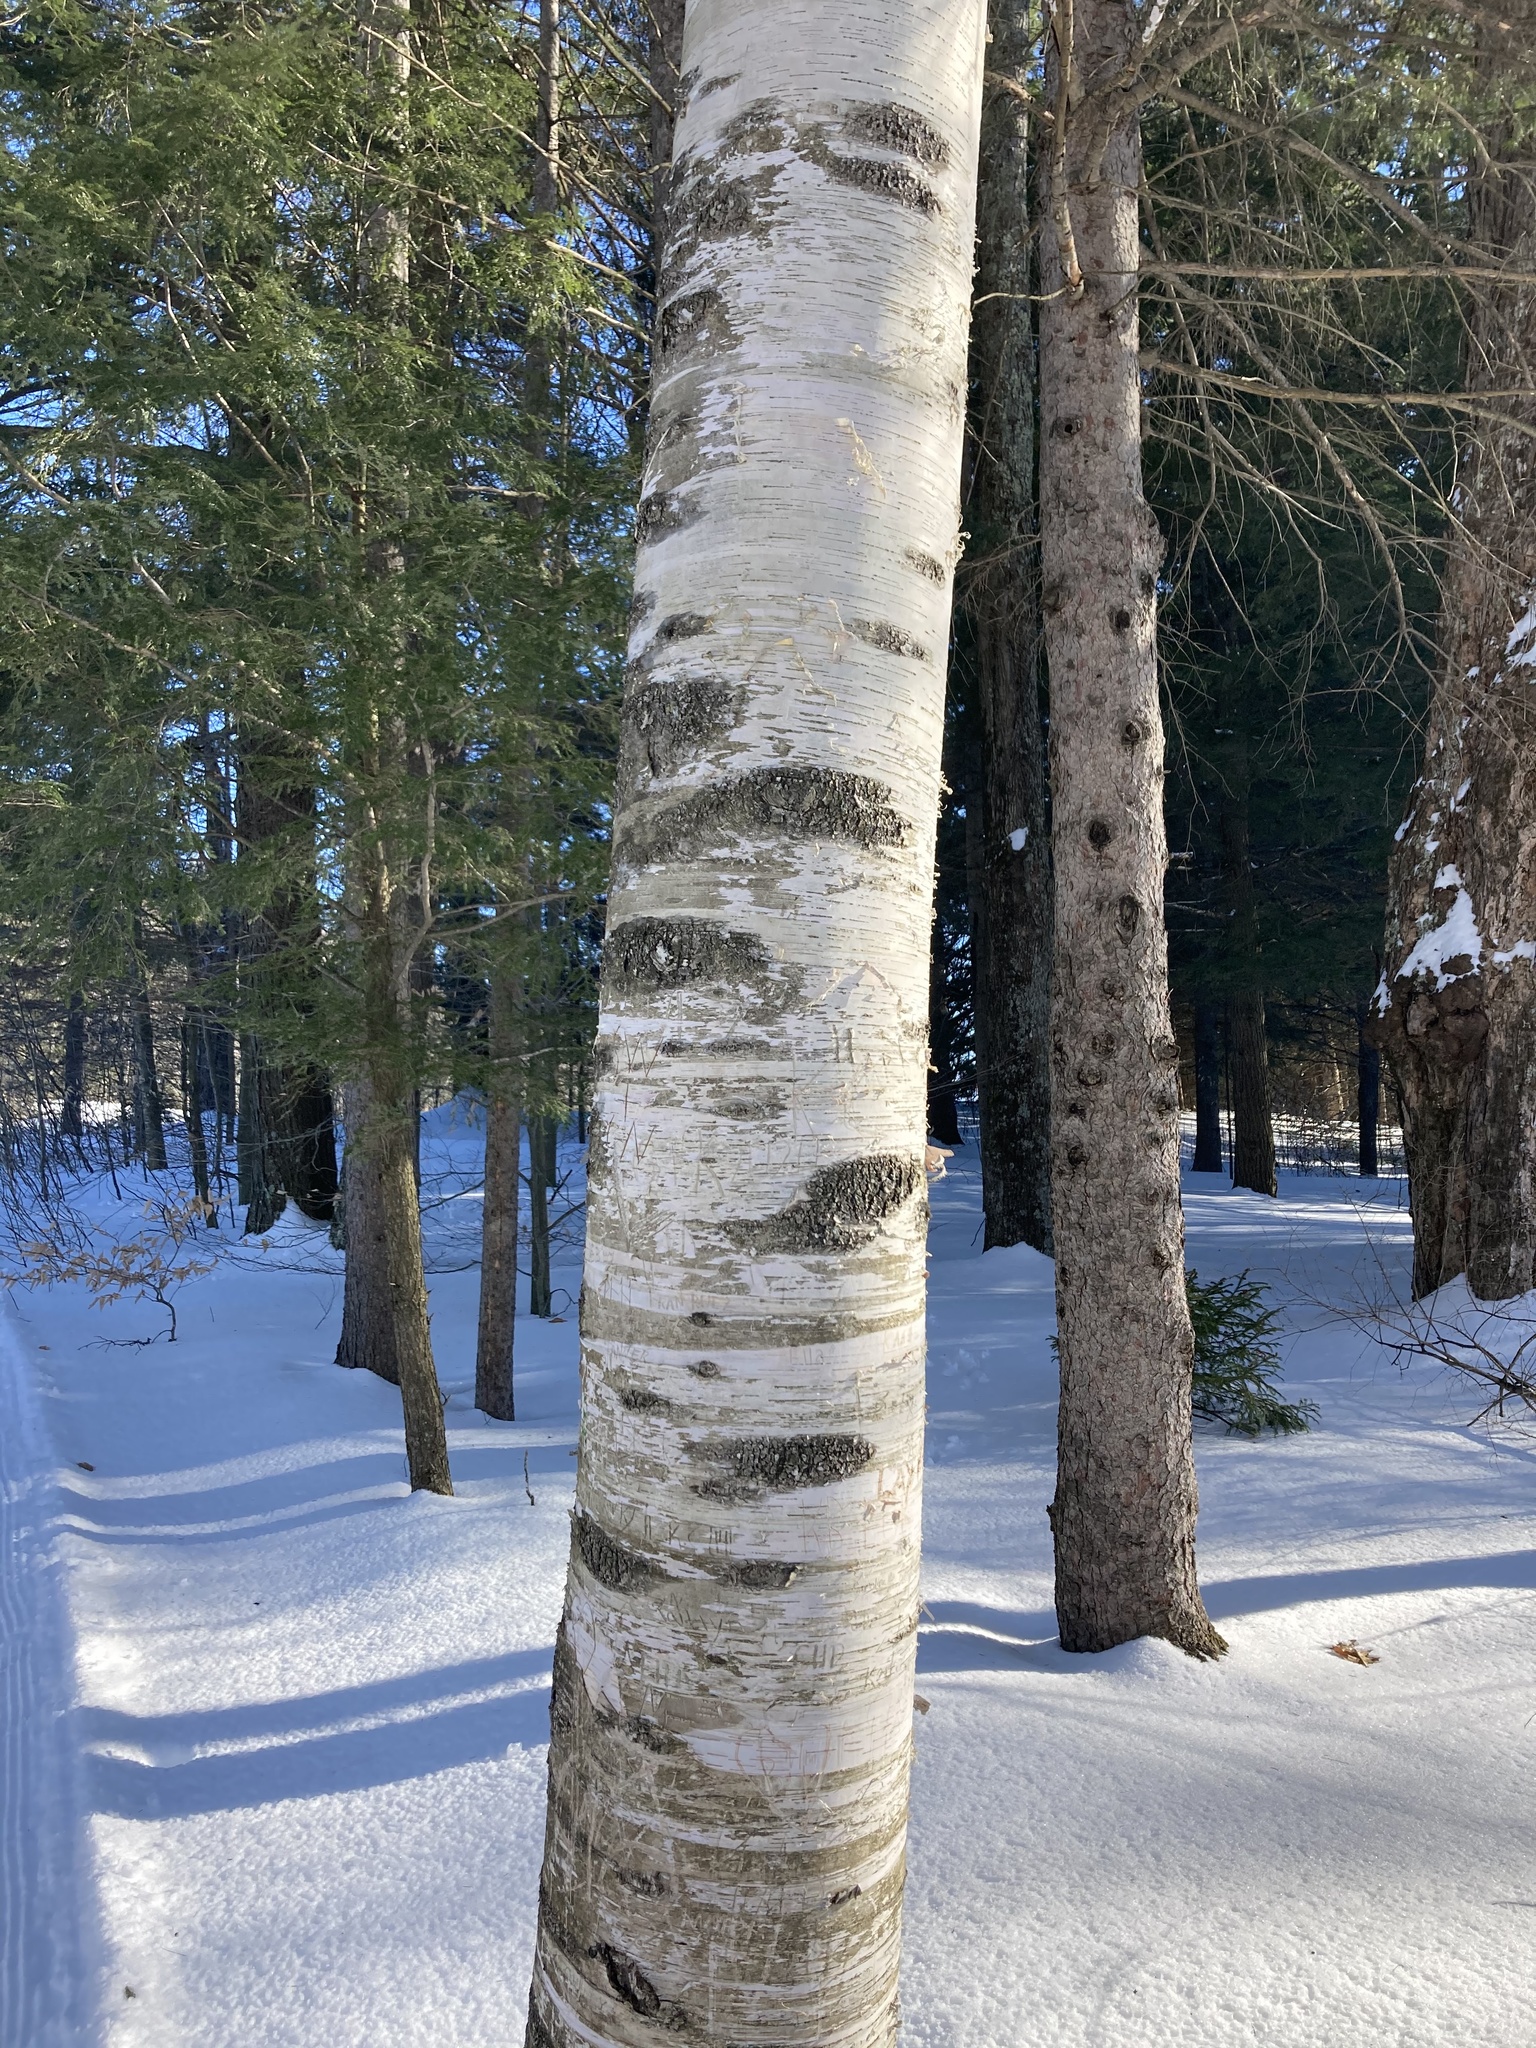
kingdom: Plantae
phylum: Tracheophyta
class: Magnoliopsida
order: Fagales
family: Betulaceae
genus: Betula
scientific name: Betula papyrifera
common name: Paper birch
